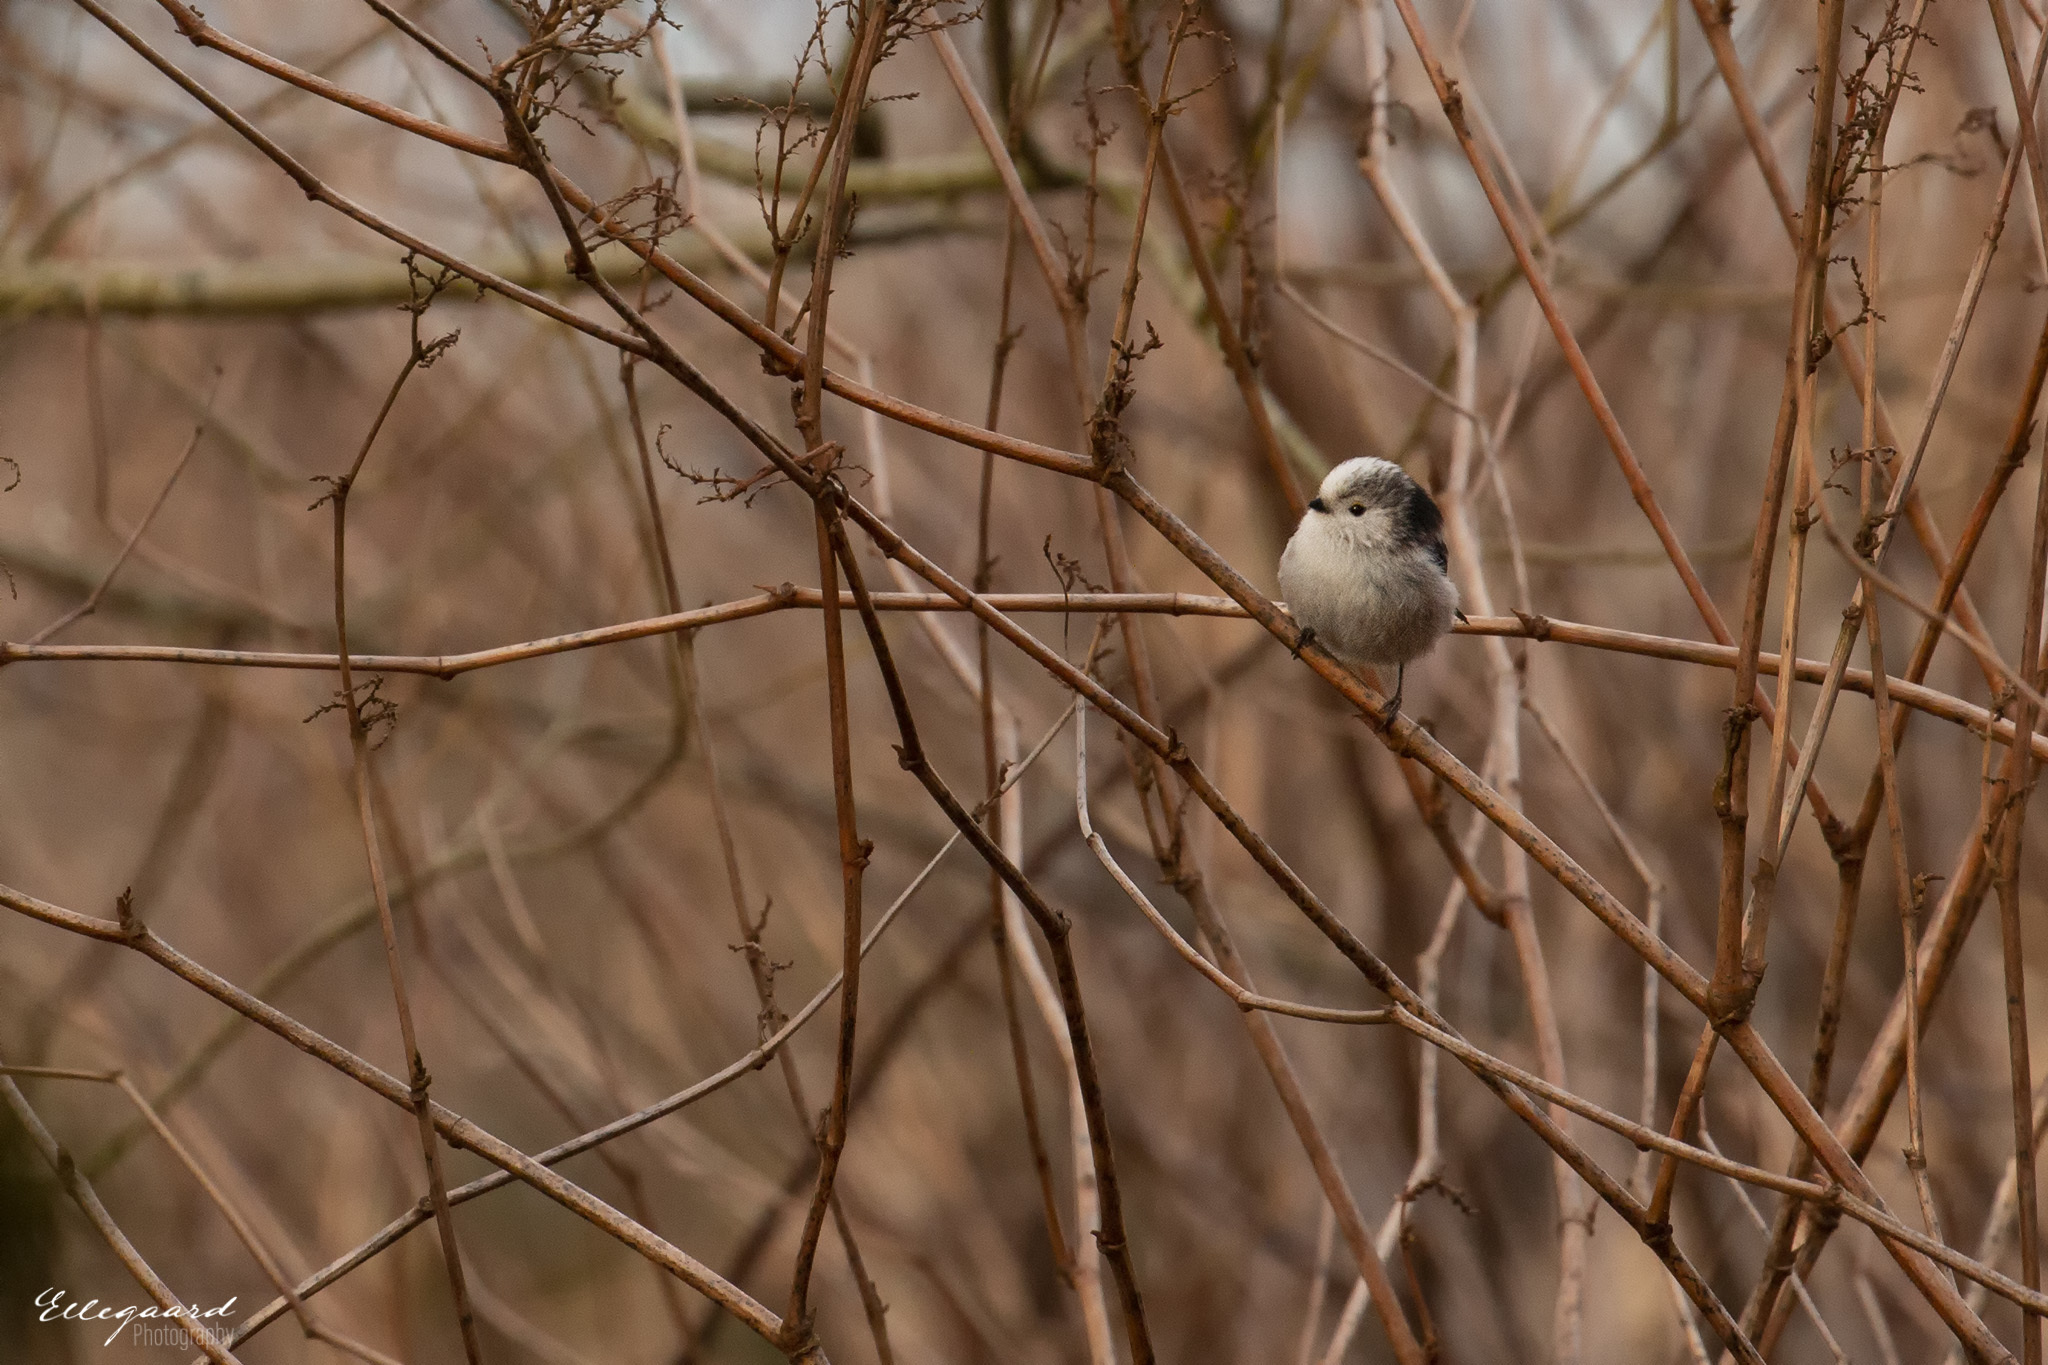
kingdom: Animalia
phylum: Chordata
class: Aves
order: Passeriformes
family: Aegithalidae
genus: Aegithalos
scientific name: Aegithalos caudatus
